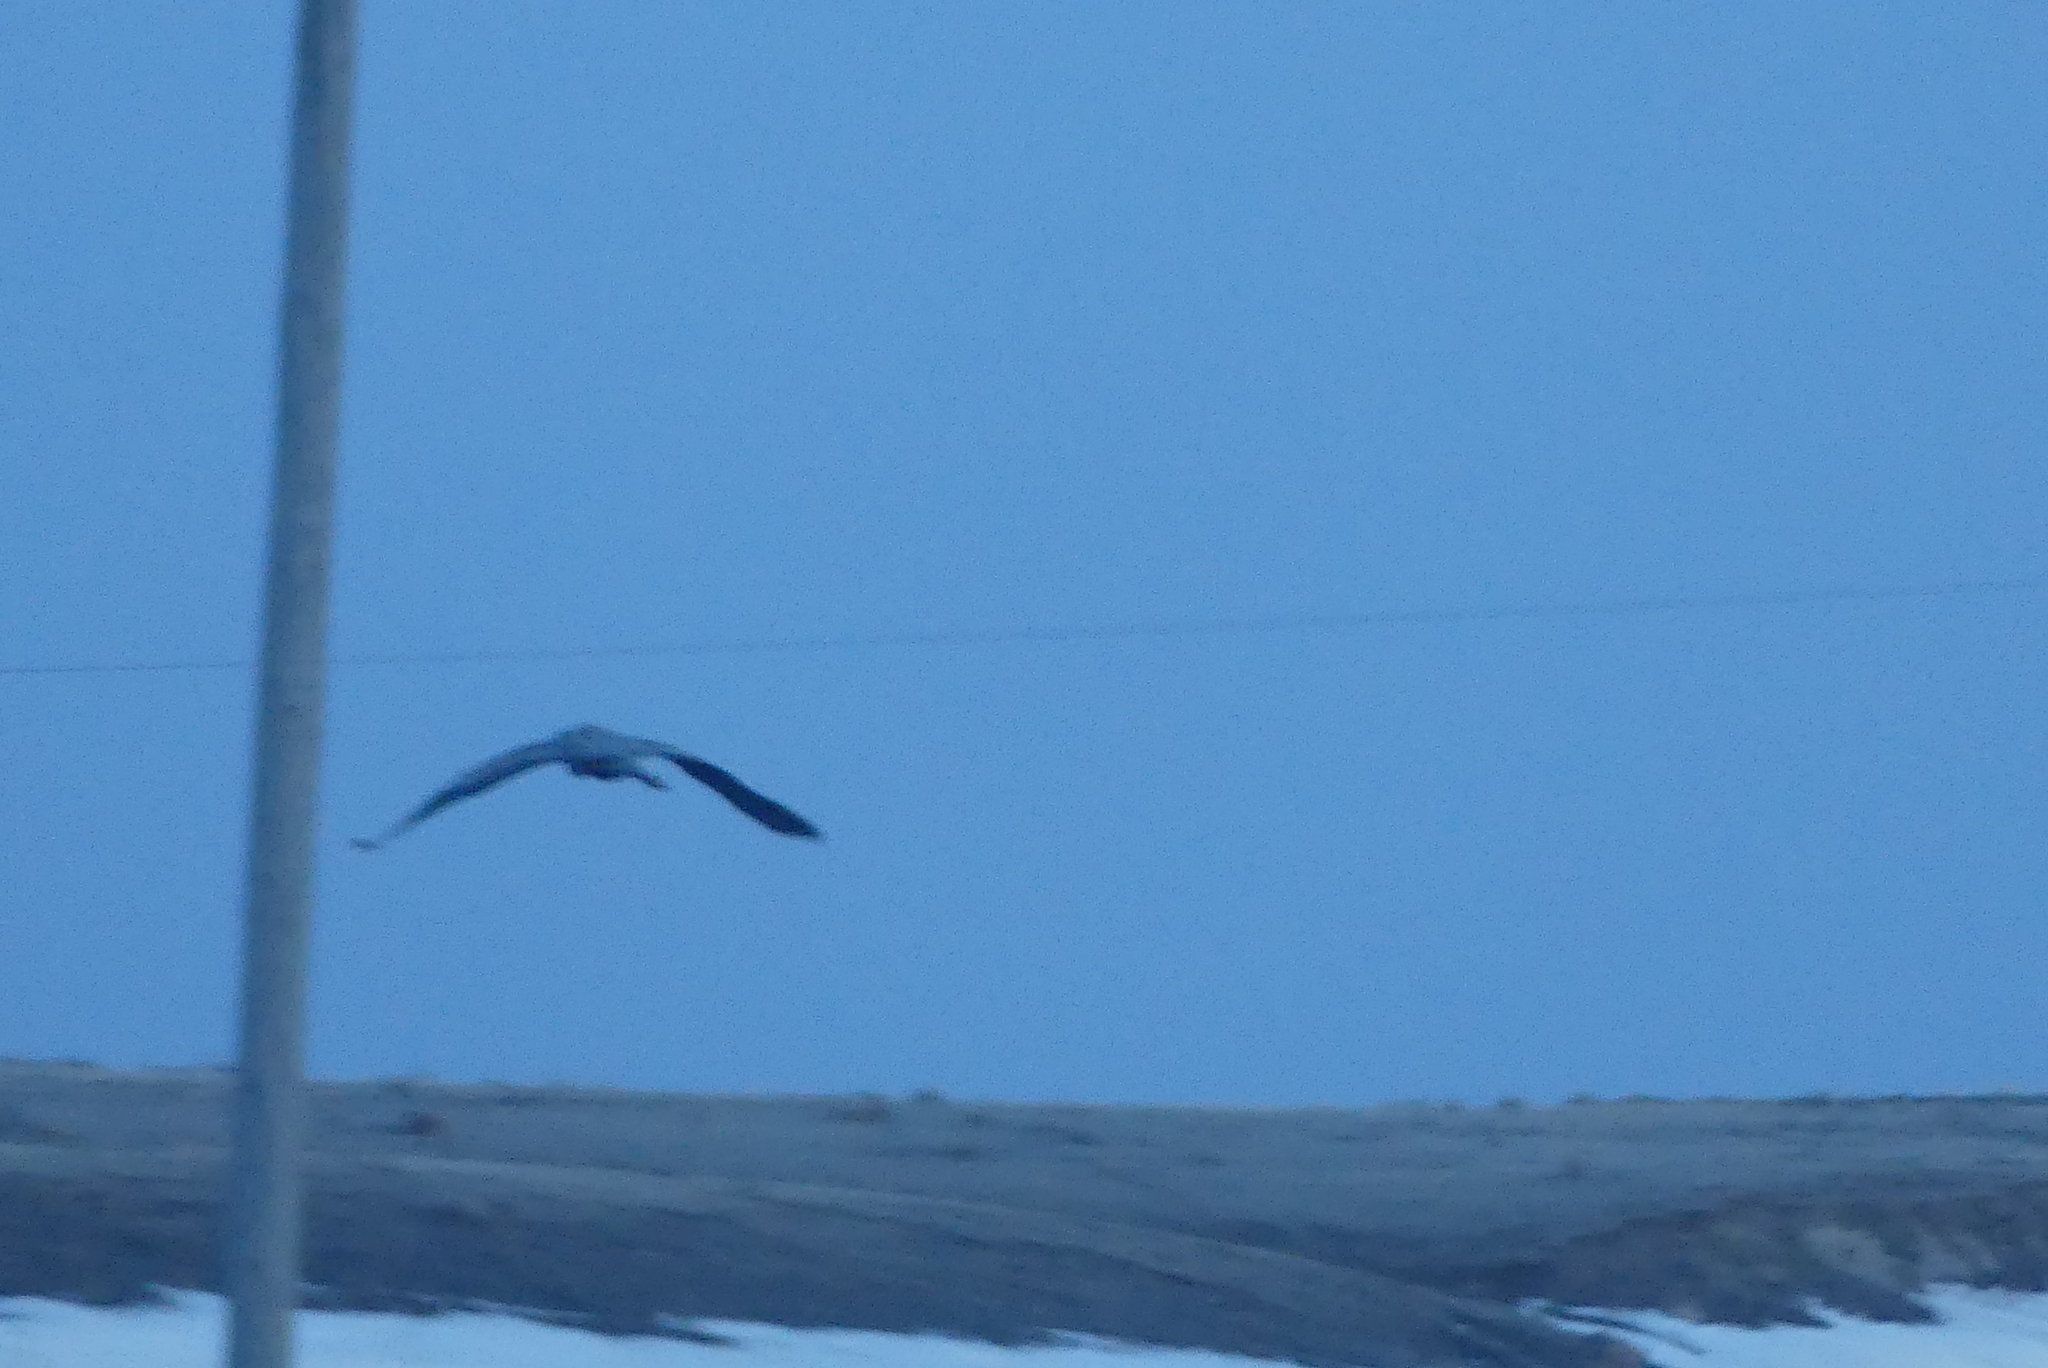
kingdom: Animalia
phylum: Chordata
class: Aves
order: Pelecaniformes
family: Ardeidae
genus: Ardea
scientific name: Ardea herodias
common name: Great blue heron
